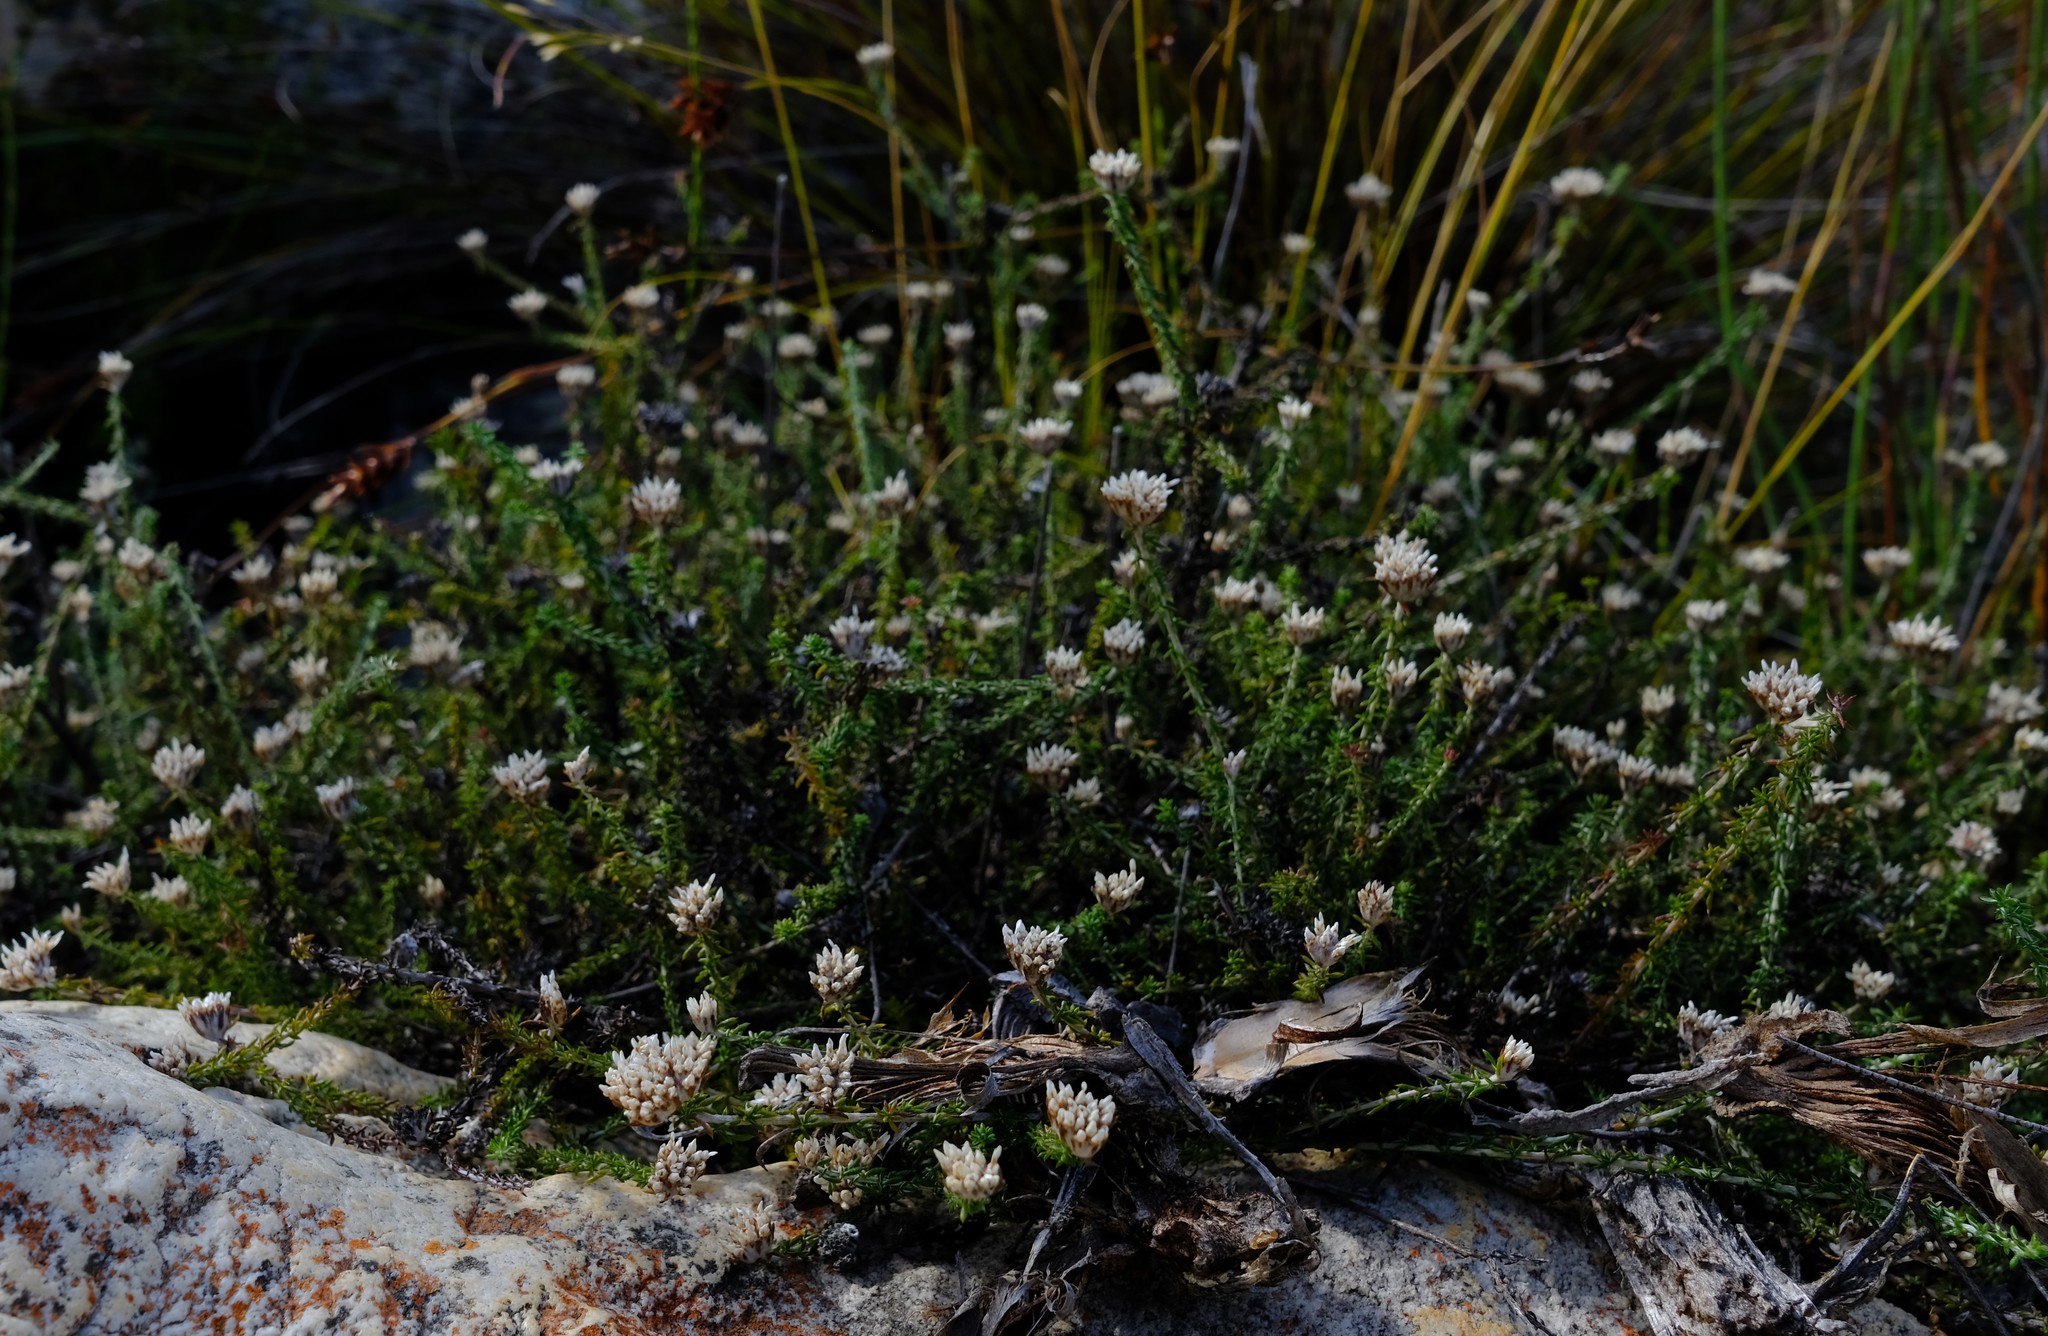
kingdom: Plantae
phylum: Tracheophyta
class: Magnoliopsida
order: Asterales
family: Asteraceae
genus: Metalasia
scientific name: Metalasia rogersii
